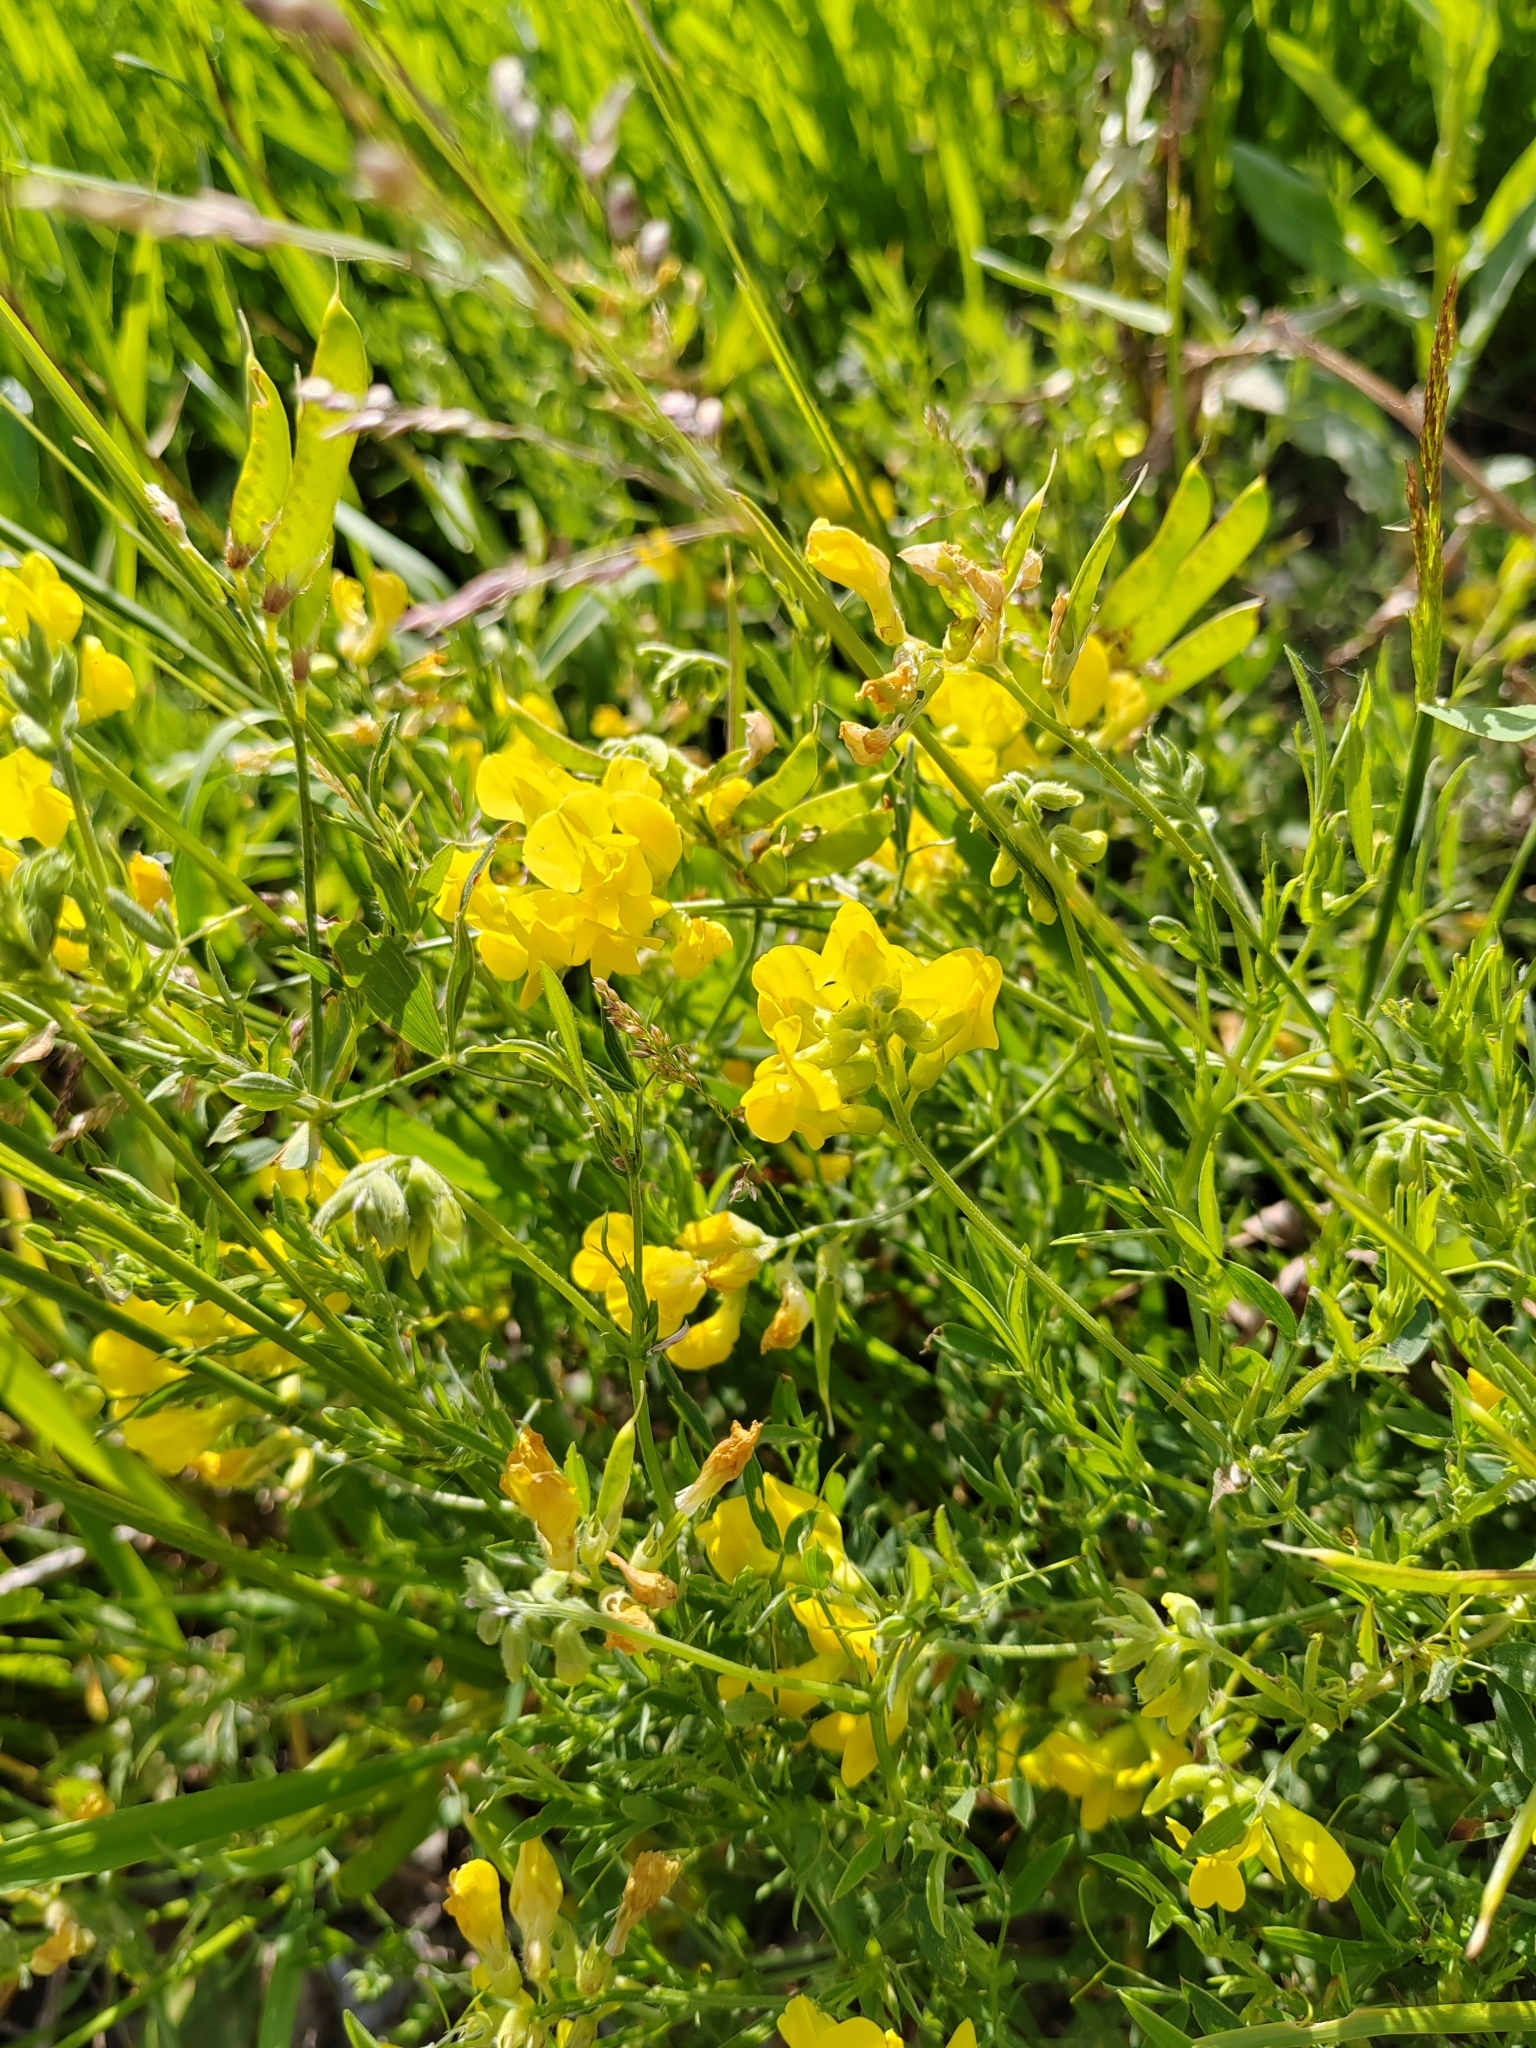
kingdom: Plantae
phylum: Tracheophyta
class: Magnoliopsida
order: Fabales
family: Fabaceae
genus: Lathyrus
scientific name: Lathyrus pratensis
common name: Meadow vetchling
